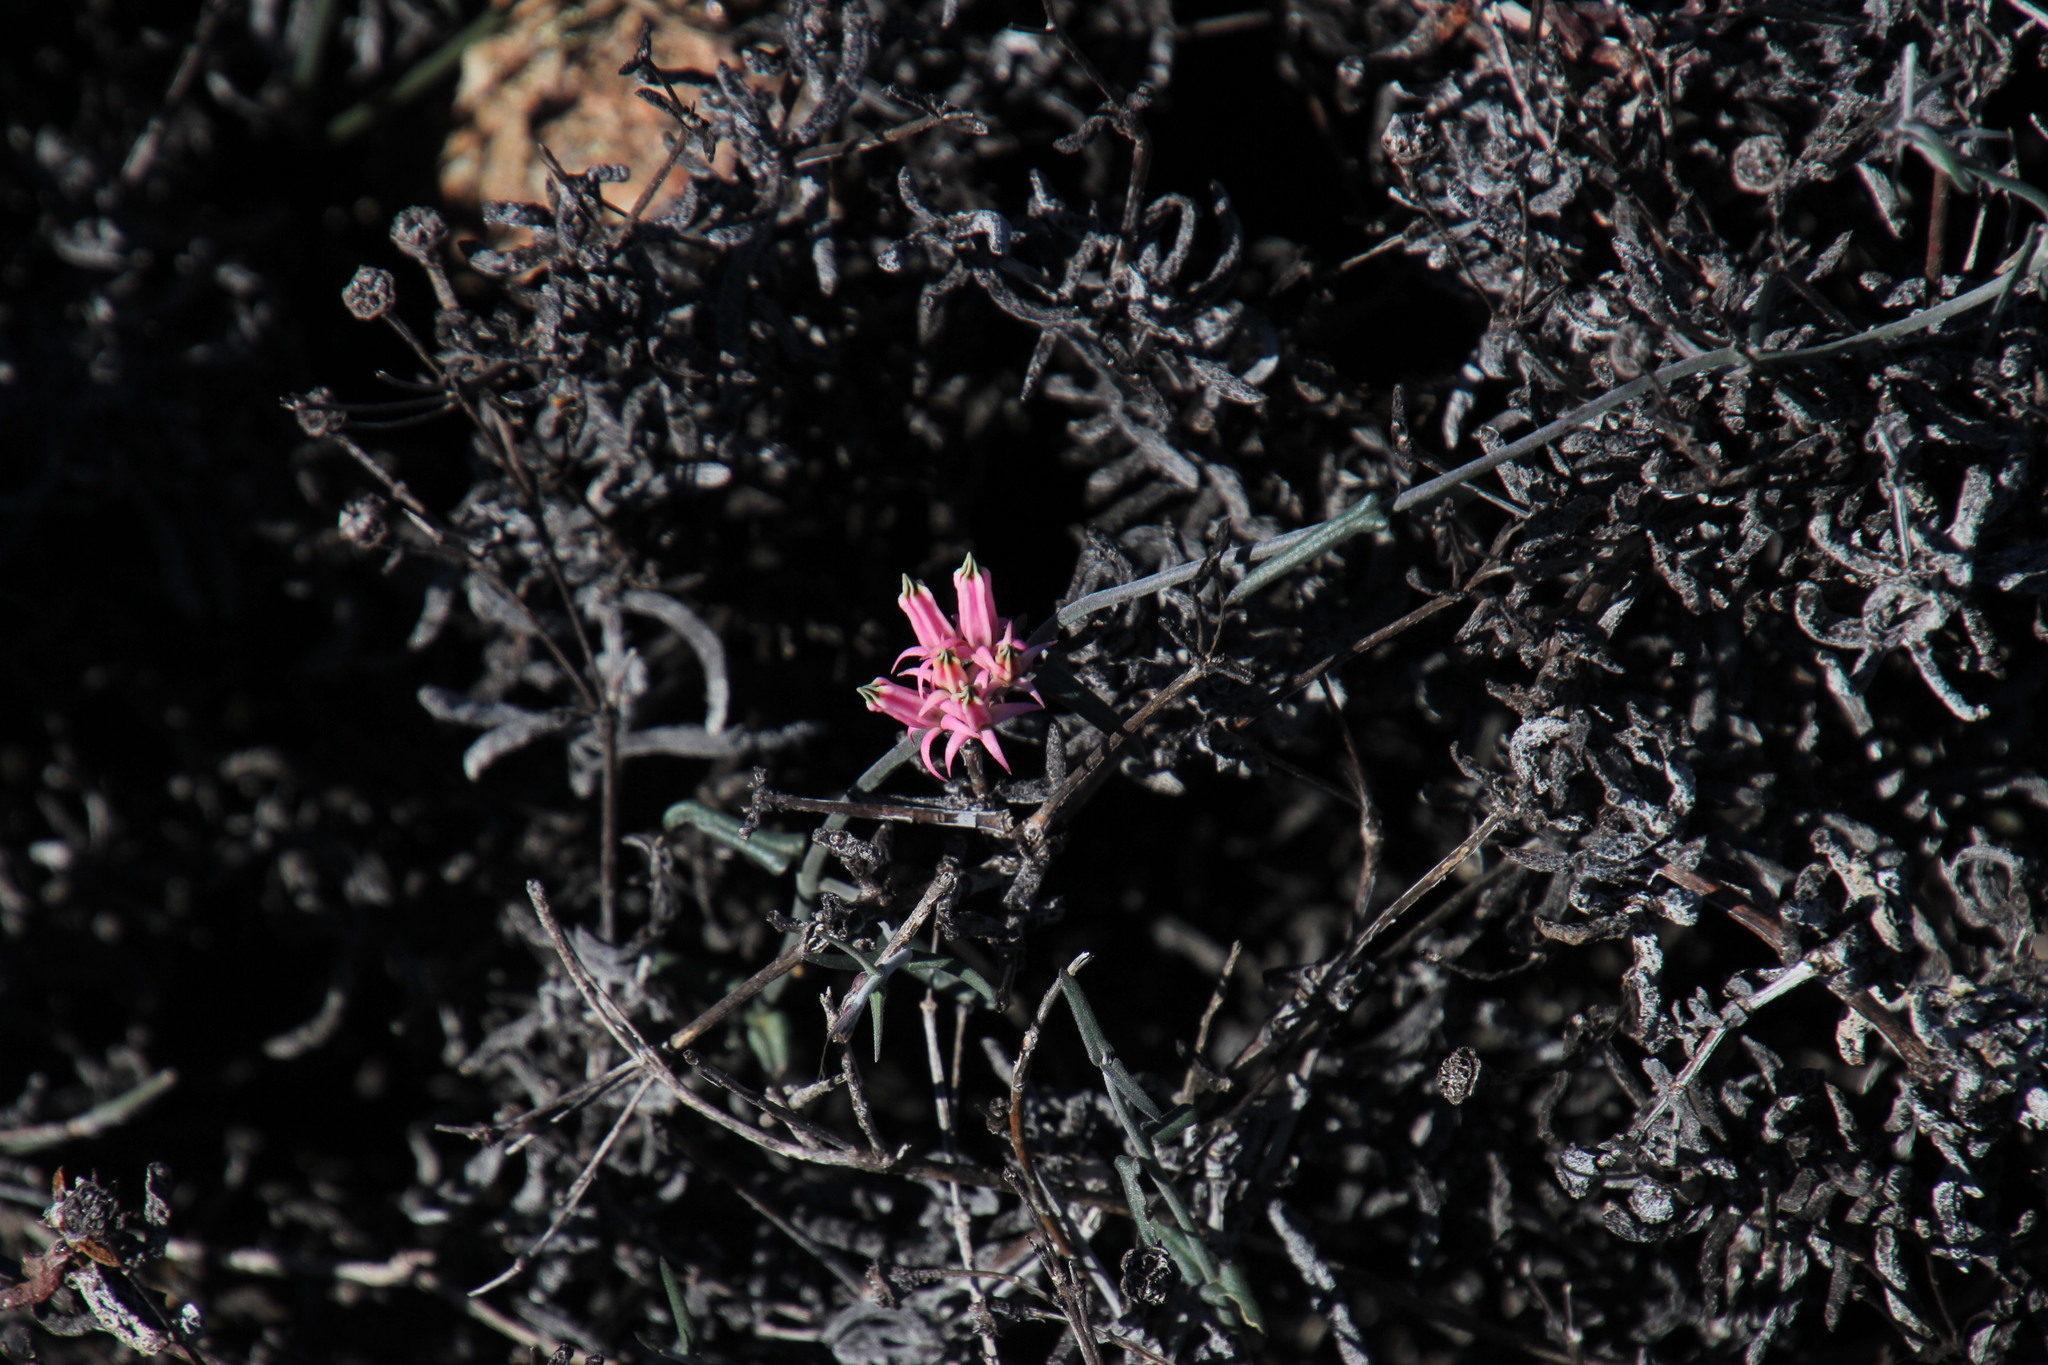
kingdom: Plantae
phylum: Tracheophyta
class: Magnoliopsida
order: Gentianales
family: Apocynaceae
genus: Microloma
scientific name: Microloma sagittatum
